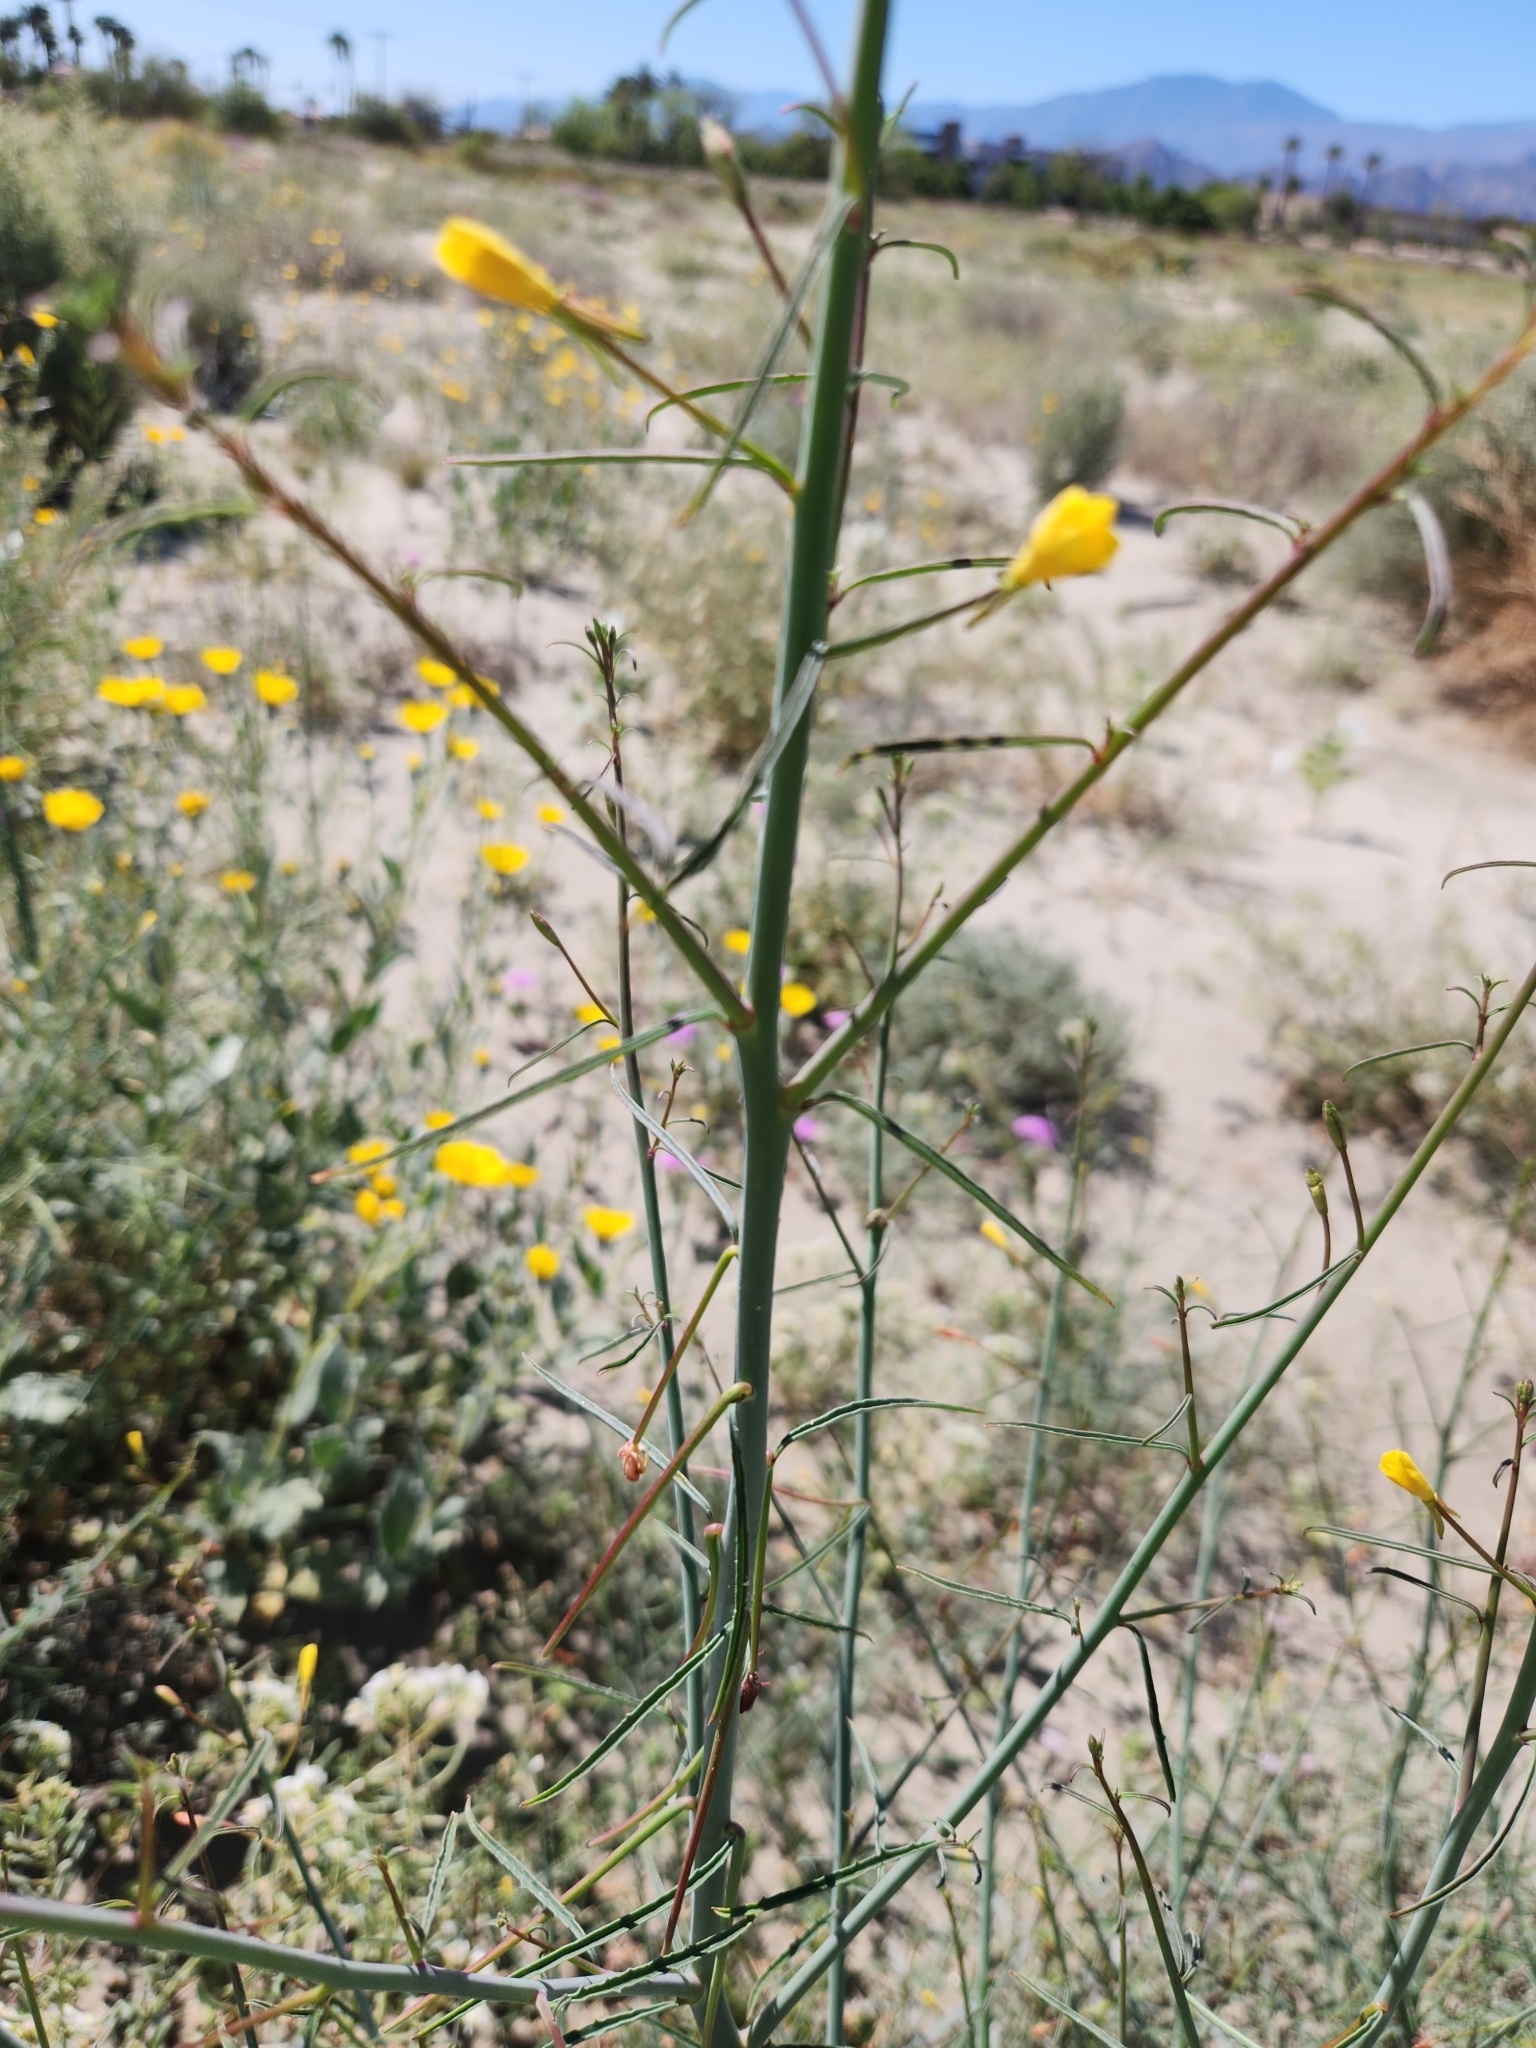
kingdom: Plantae
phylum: Tracheophyta
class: Magnoliopsida
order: Myrtales
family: Onagraceae
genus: Eulobus
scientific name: Eulobus californicus
